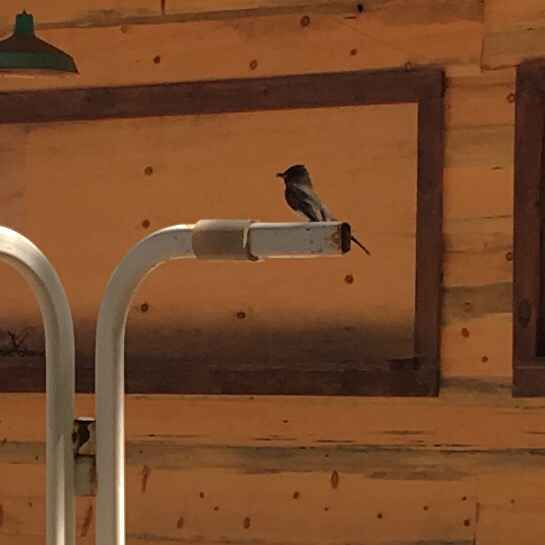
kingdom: Animalia
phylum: Chordata
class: Aves
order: Passeriformes
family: Tyrannidae
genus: Sayornis
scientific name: Sayornis nigricans
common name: Black phoebe
